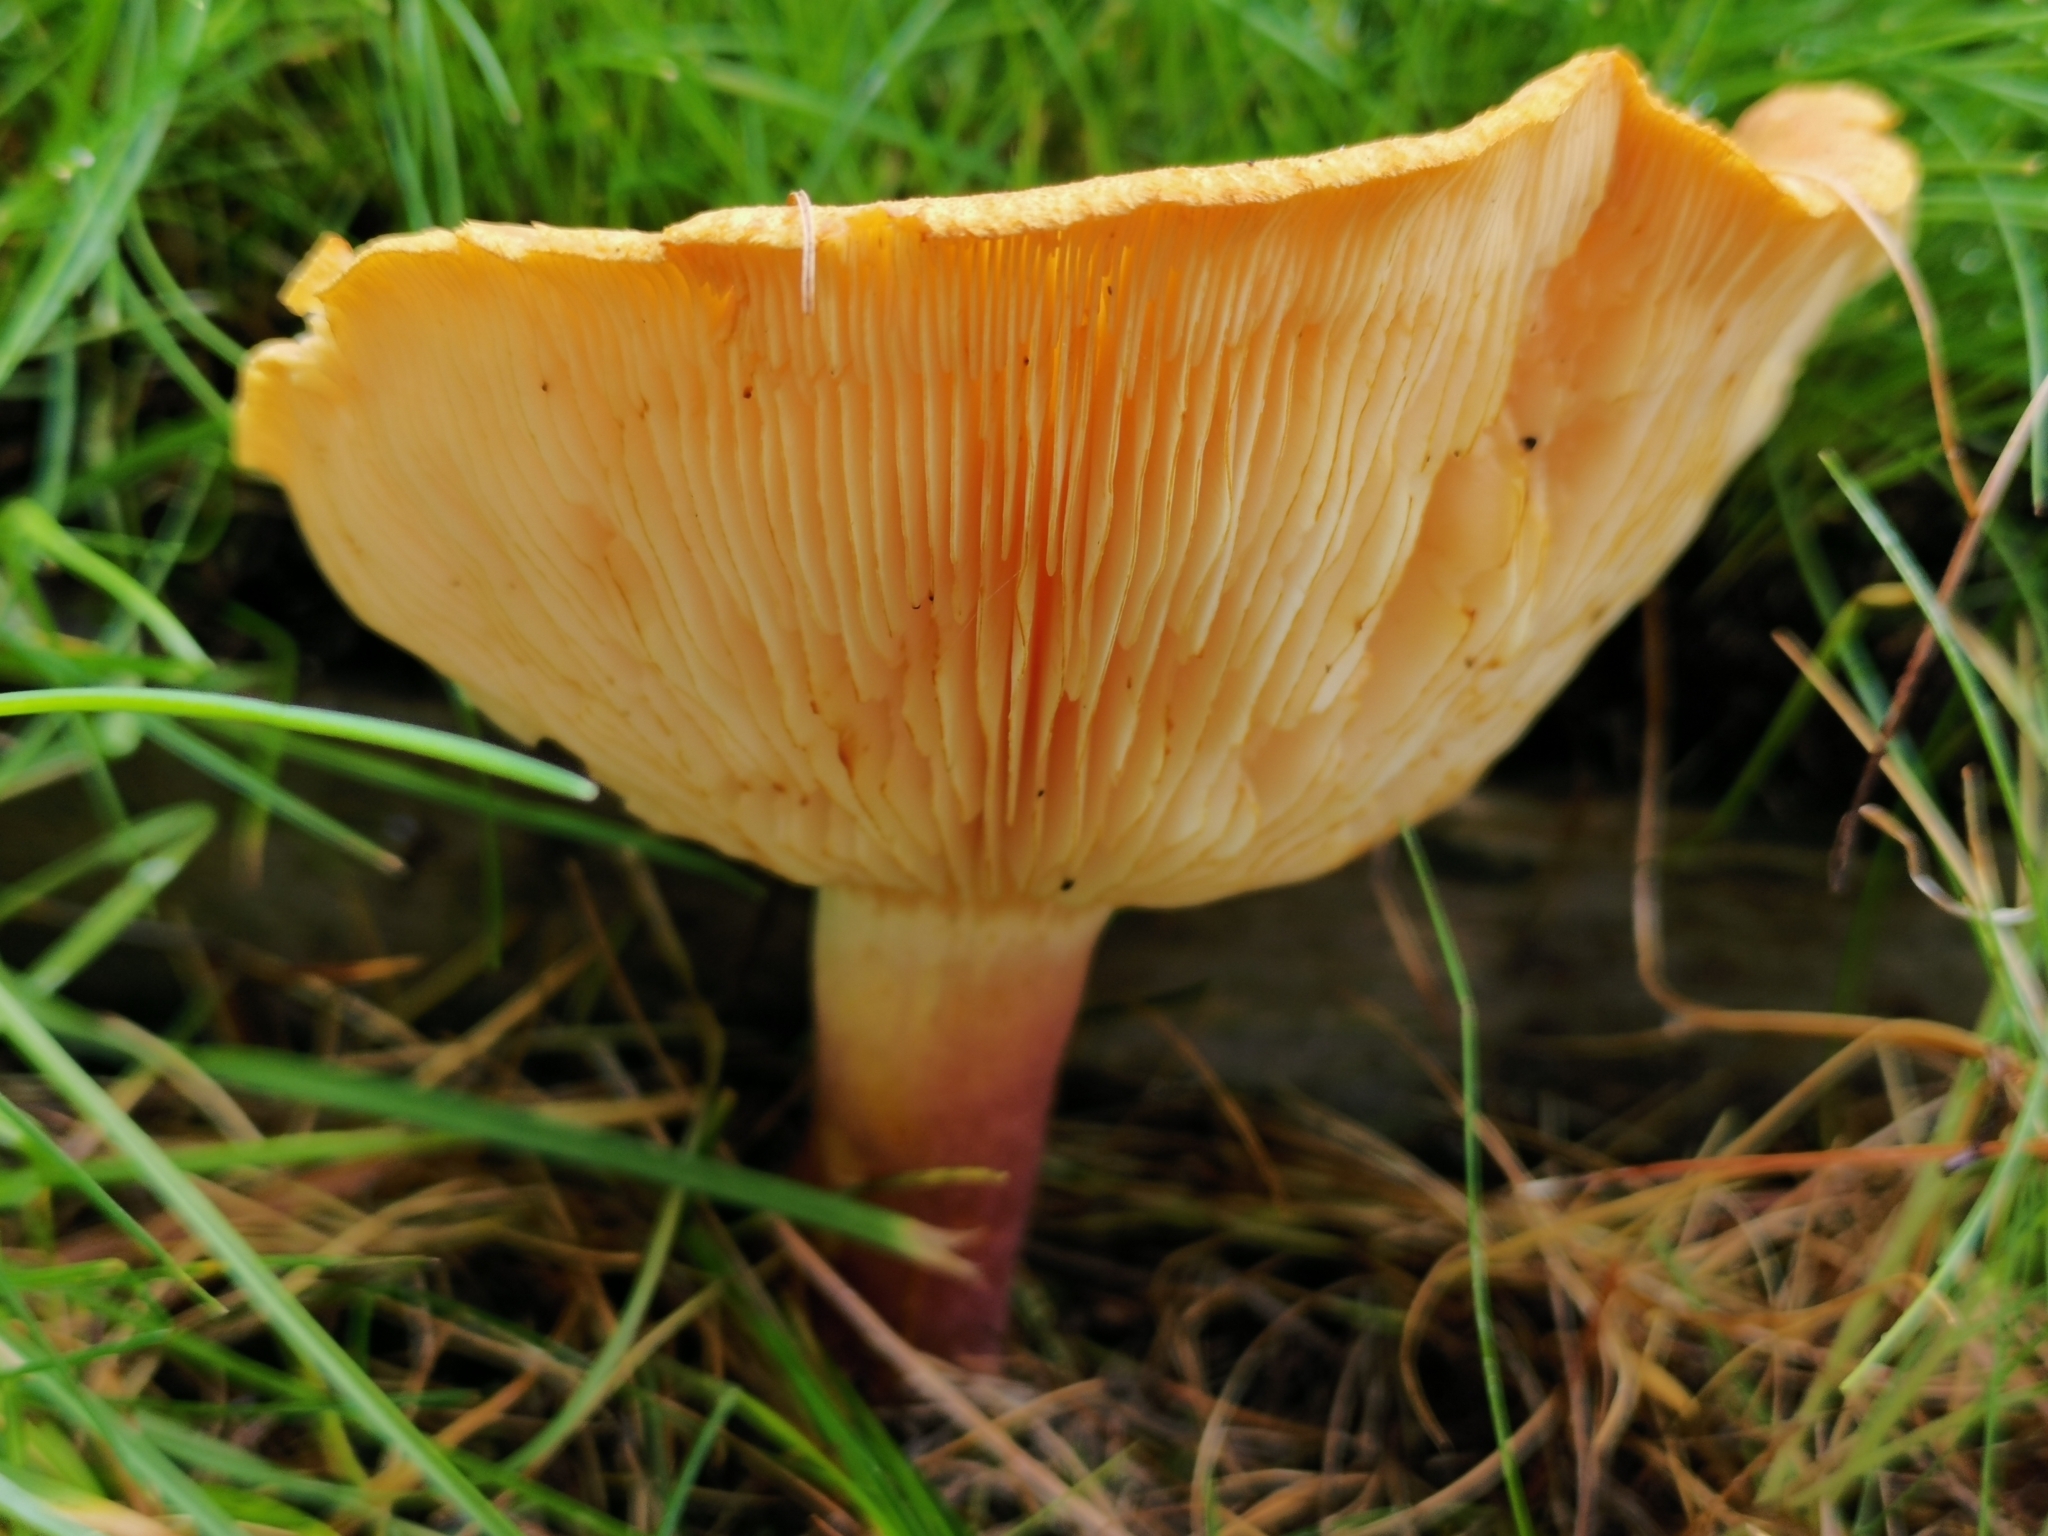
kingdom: Fungi
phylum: Basidiomycota
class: Agaricomycetes
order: Agaricales
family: Tricholomataceae
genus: Tricholomopsis
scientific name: Tricholomopsis rutilans
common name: Plums and custard
